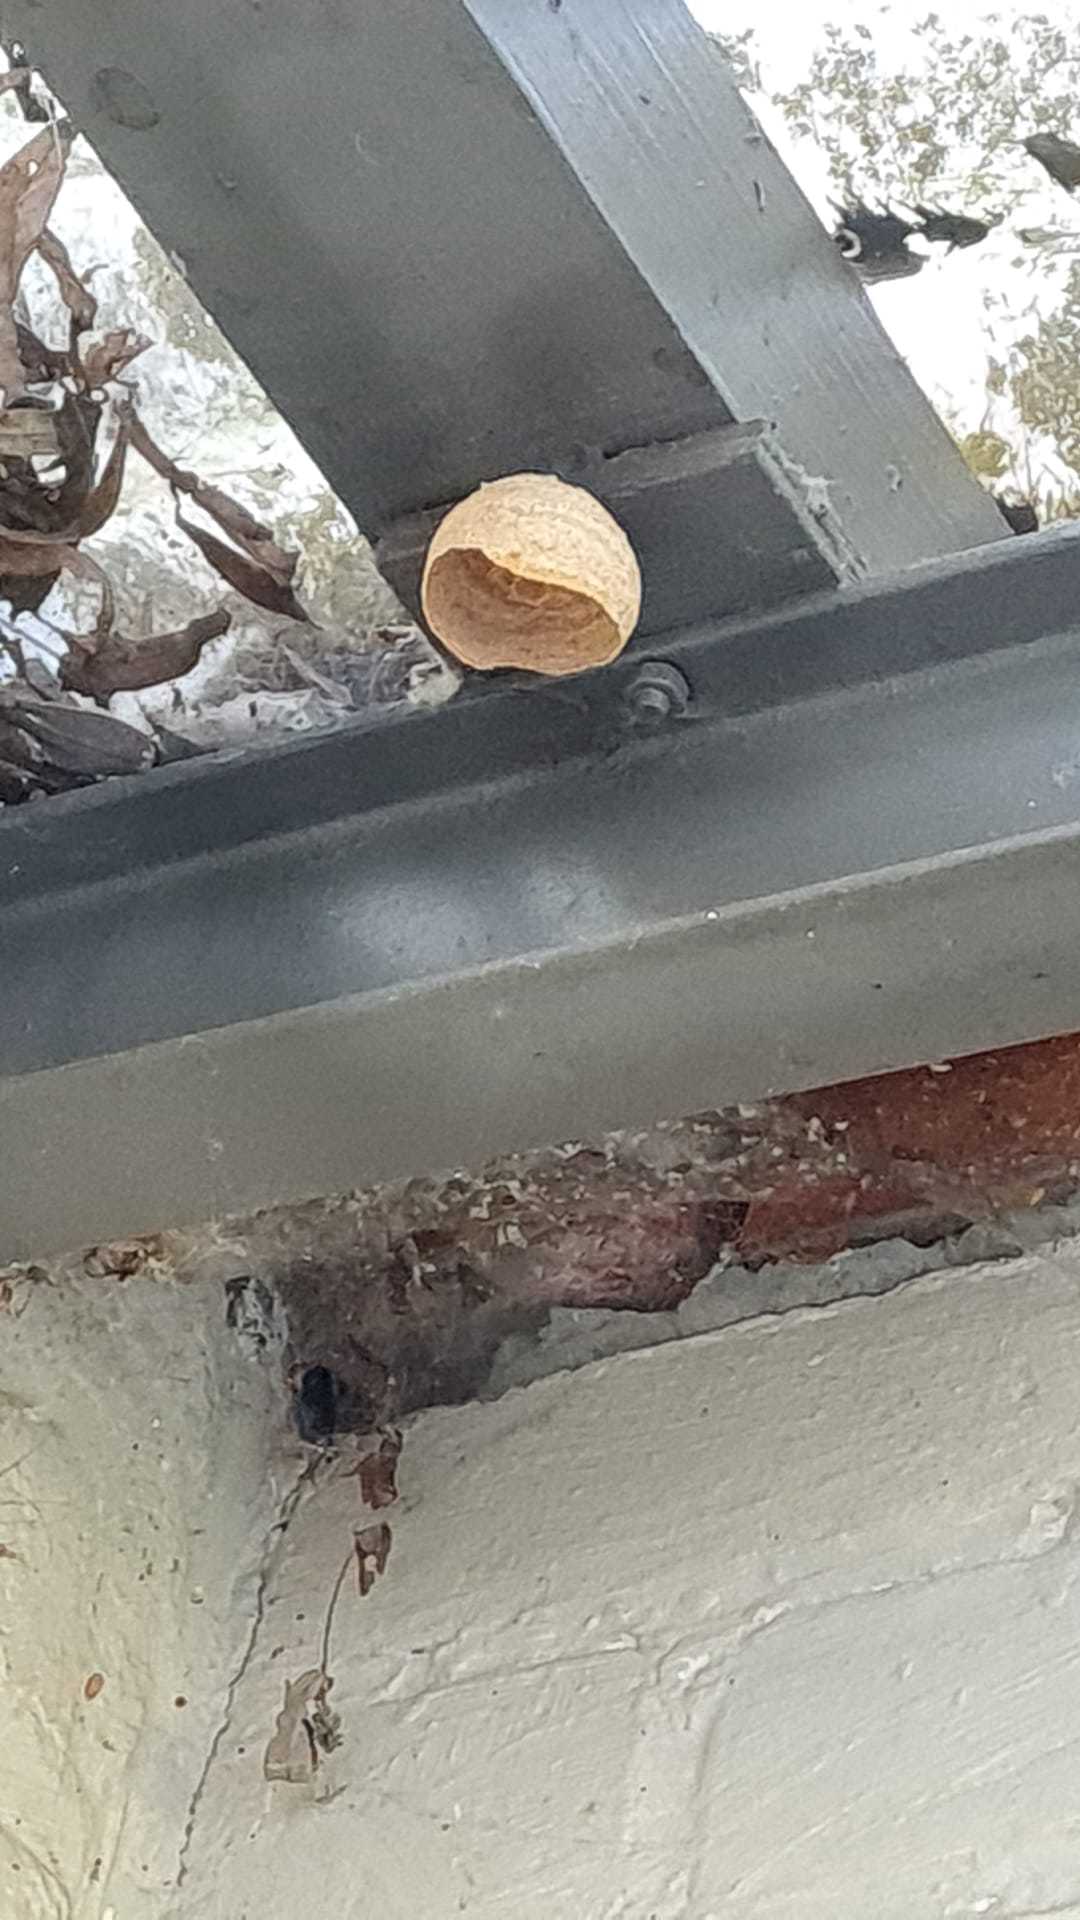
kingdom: Animalia
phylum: Arthropoda
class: Insecta
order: Hymenoptera
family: Vespidae
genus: Vespa
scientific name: Vespa velutina
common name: Asian hornet
